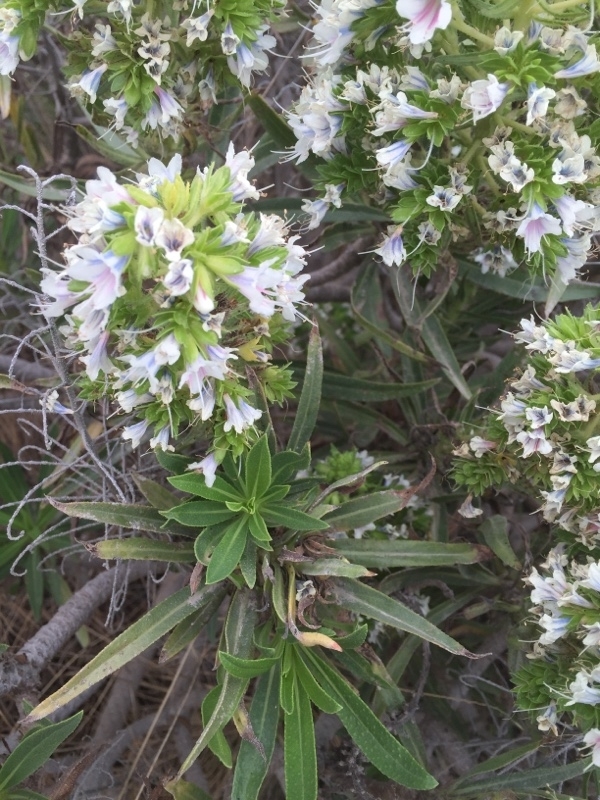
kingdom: Plantae
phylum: Tracheophyta
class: Magnoliopsida
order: Boraginales
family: Boraginaceae
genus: Echium
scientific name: Echium decaisnei
